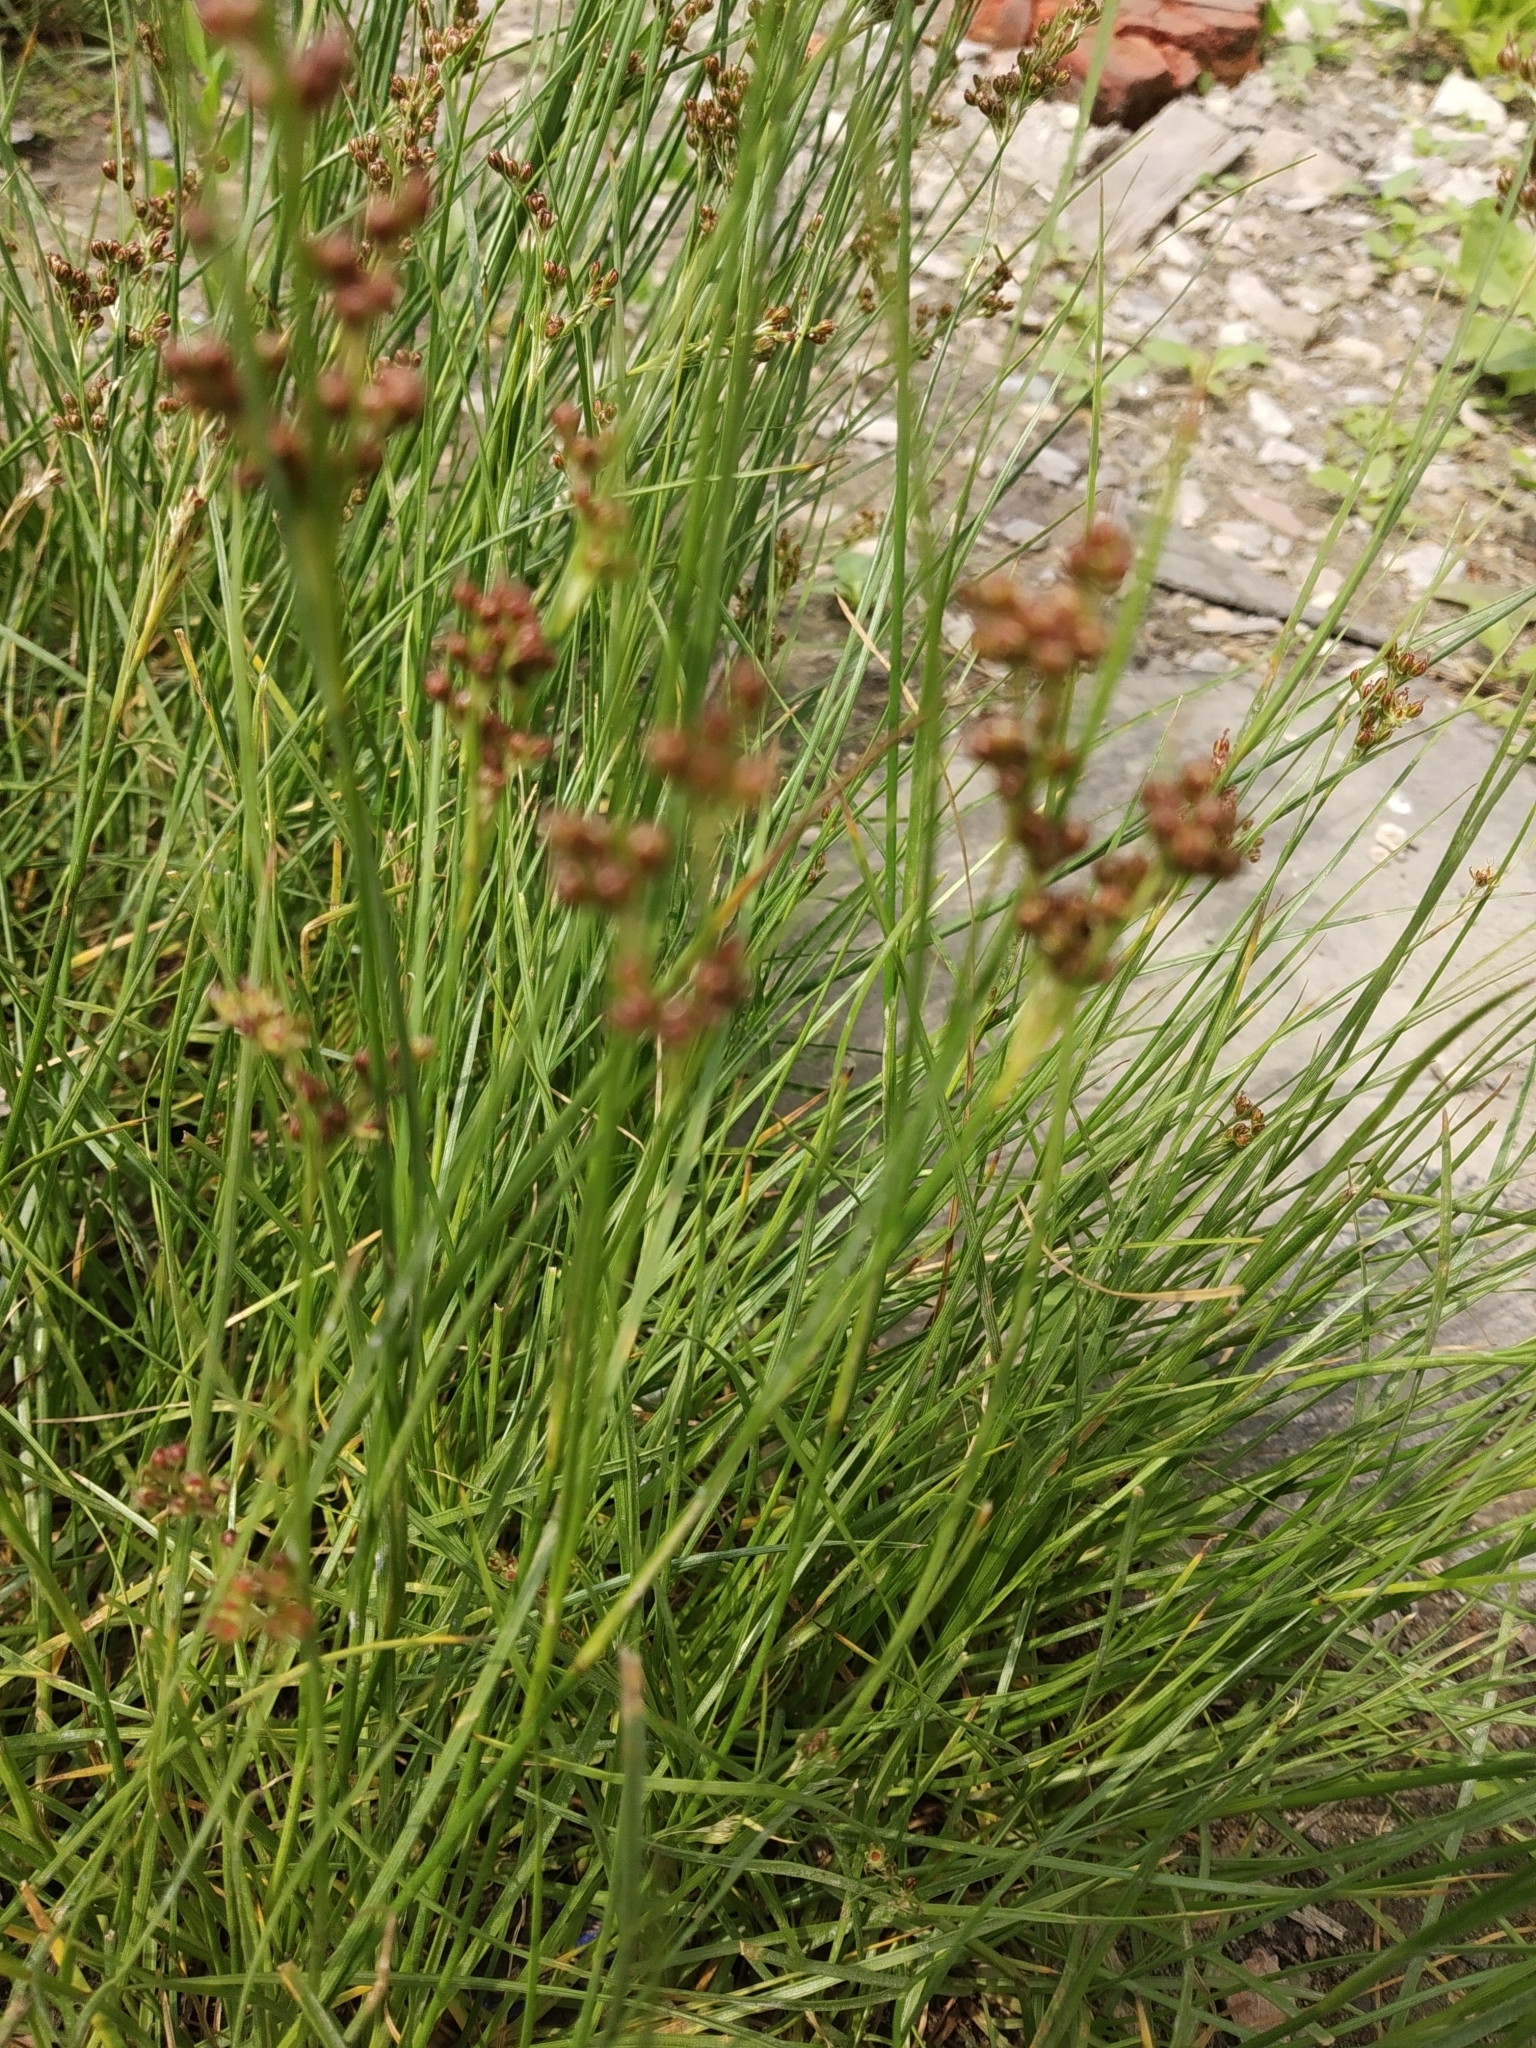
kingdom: Plantae
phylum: Tracheophyta
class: Liliopsida
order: Poales
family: Juncaceae
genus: Juncus
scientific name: Juncus compressus
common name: Round-fruited rush
